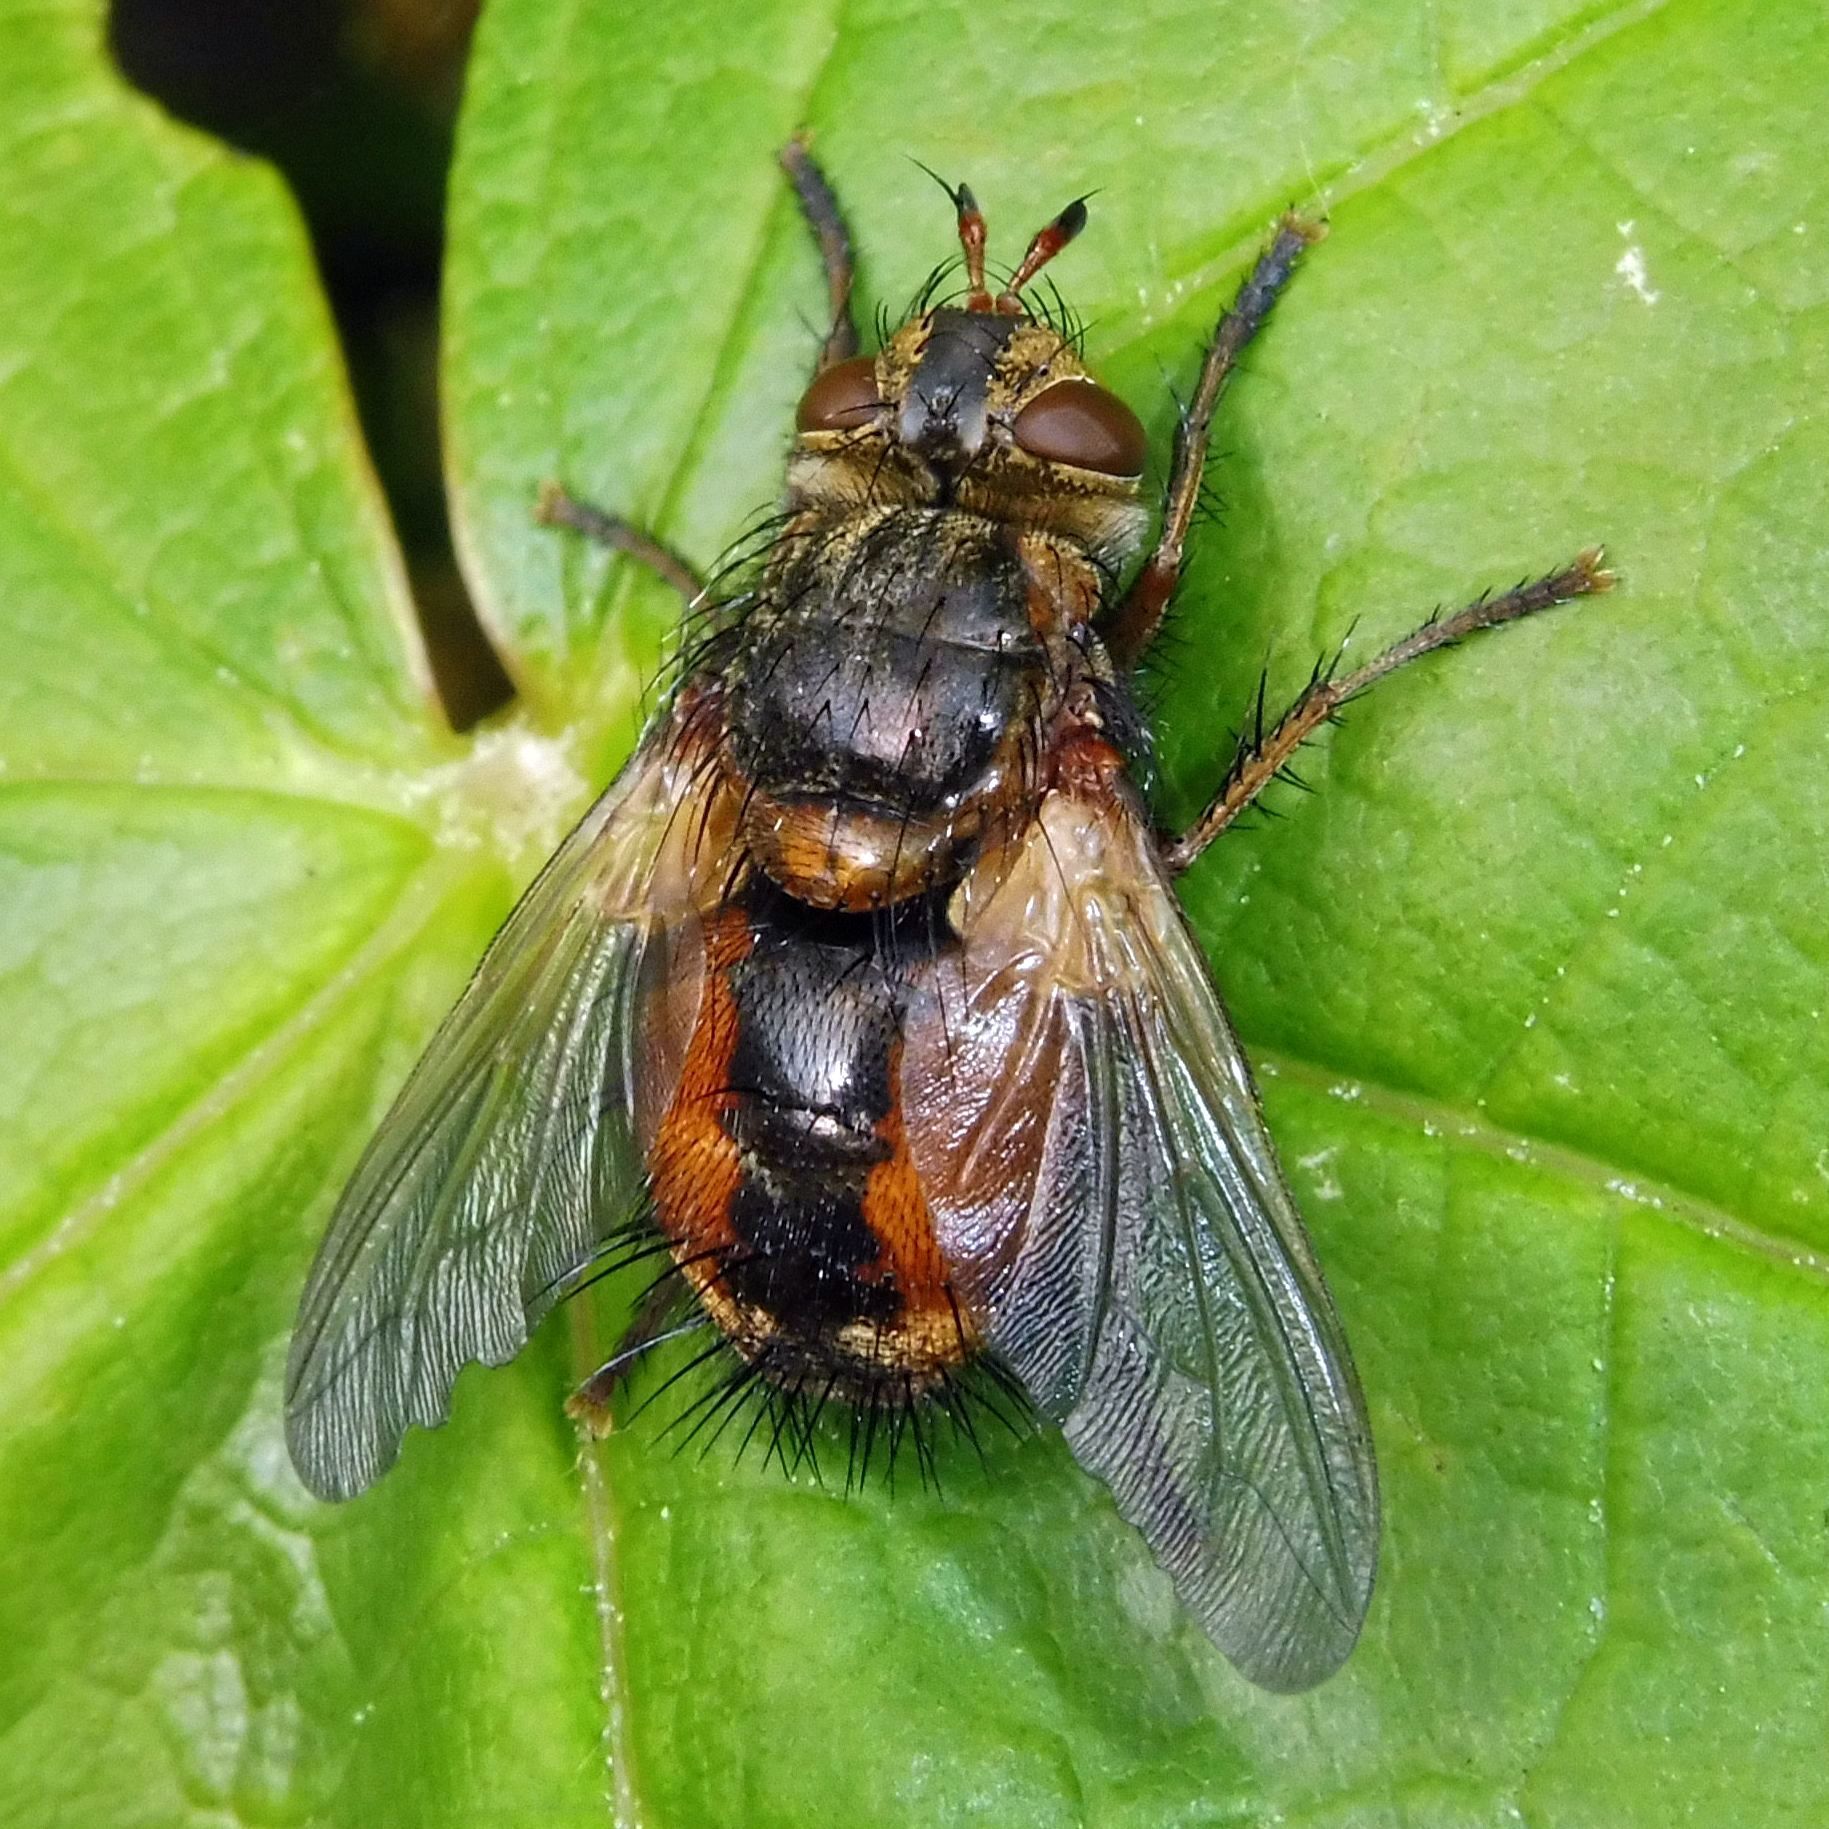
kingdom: Animalia
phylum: Arthropoda
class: Insecta
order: Diptera
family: Tachinidae
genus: Tachina
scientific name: Tachina fera
